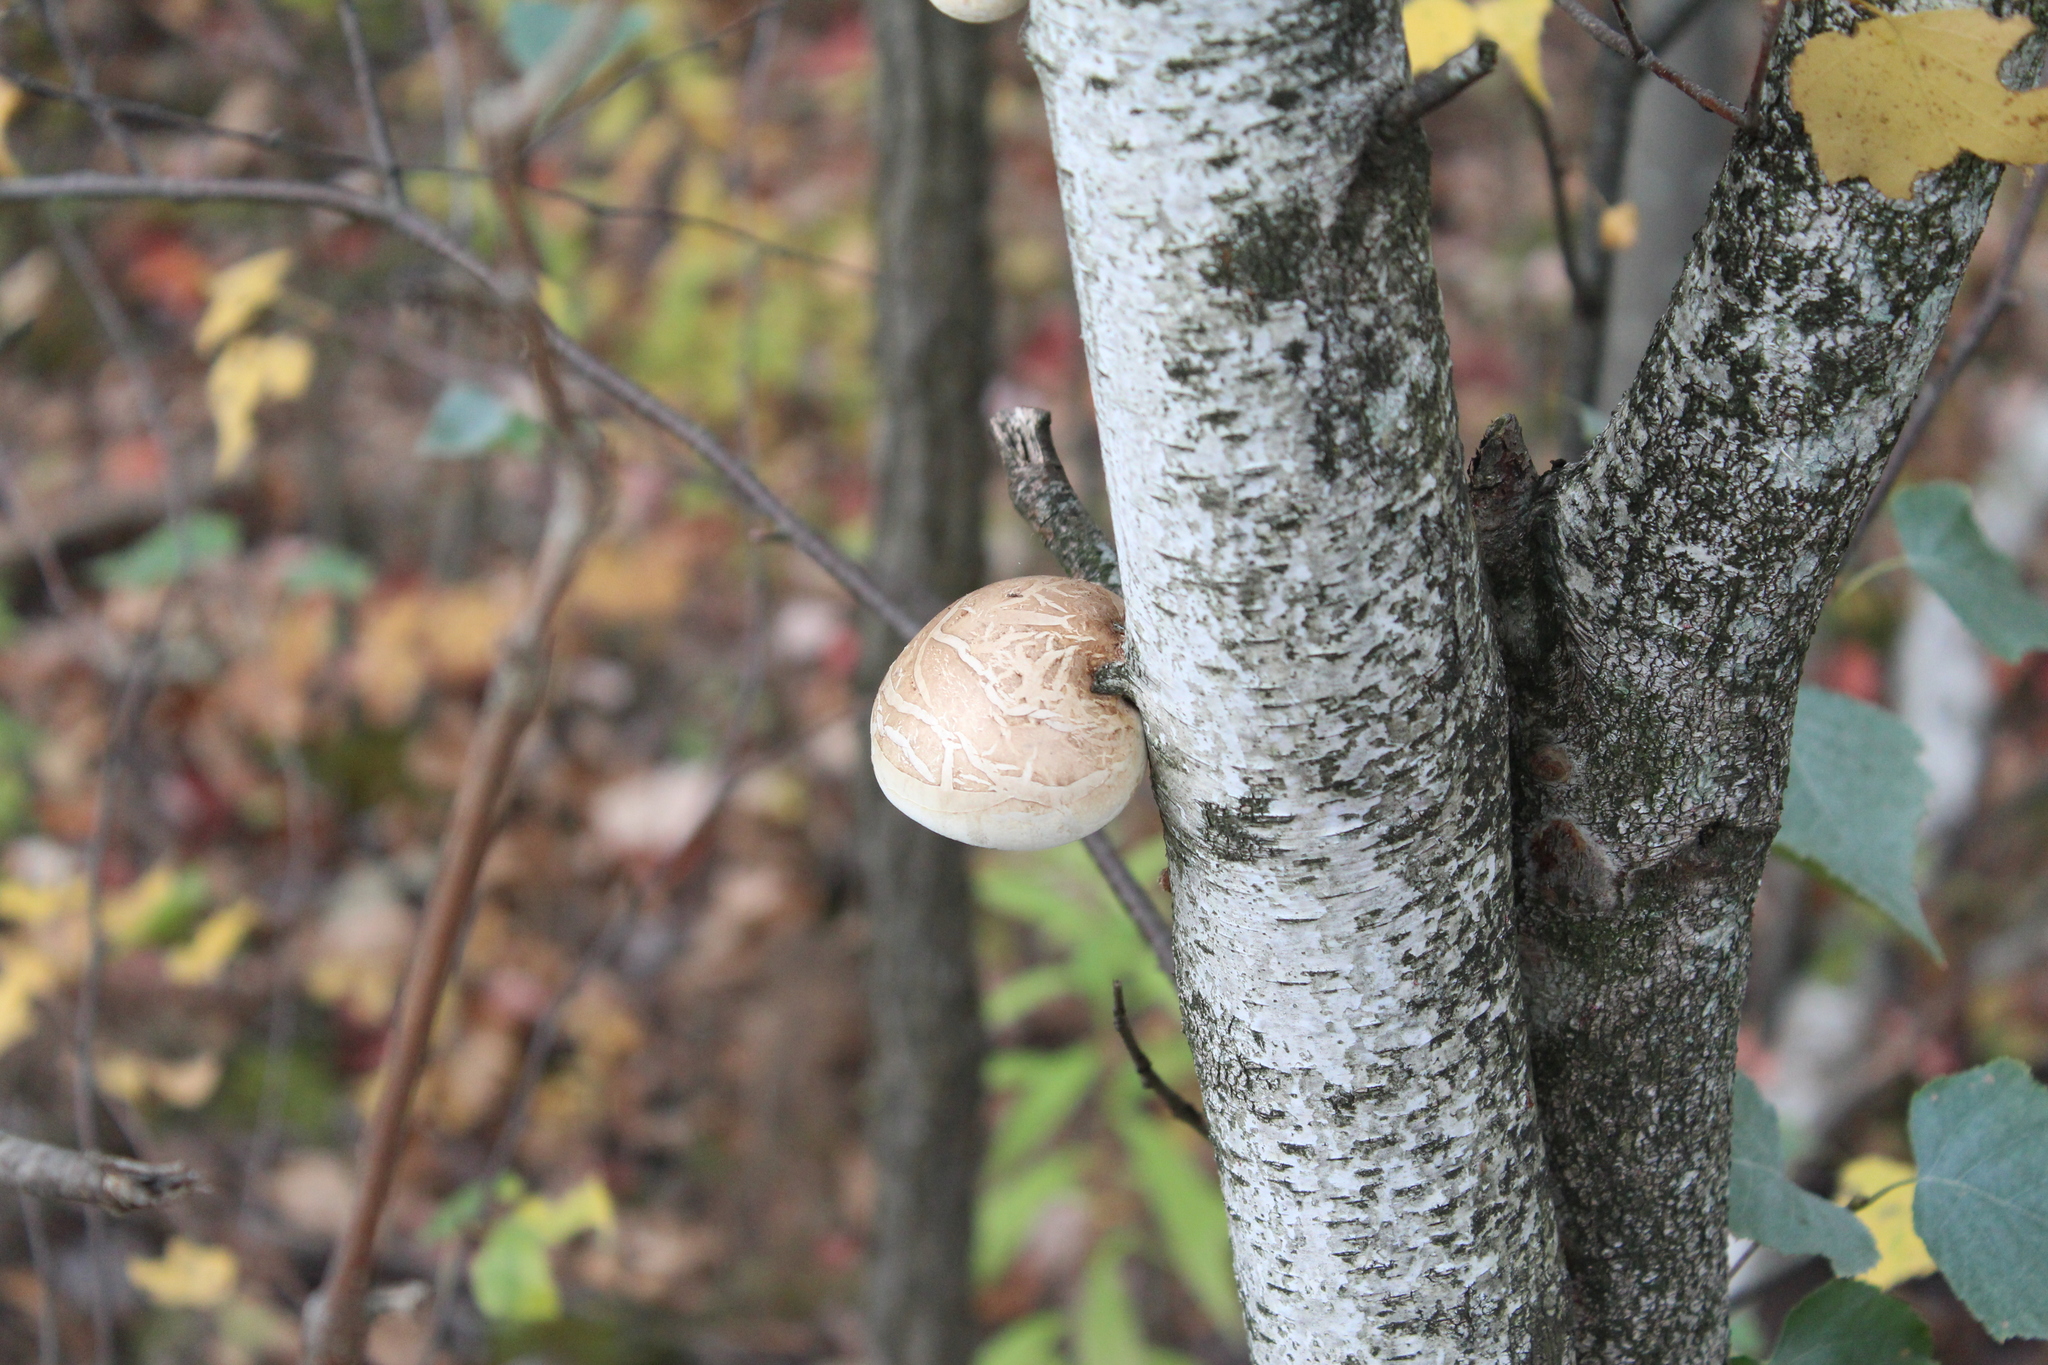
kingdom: Fungi
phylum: Basidiomycota
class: Agaricomycetes
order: Polyporales
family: Fomitopsidaceae
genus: Fomitopsis
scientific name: Fomitopsis betulina
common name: Birch polypore
